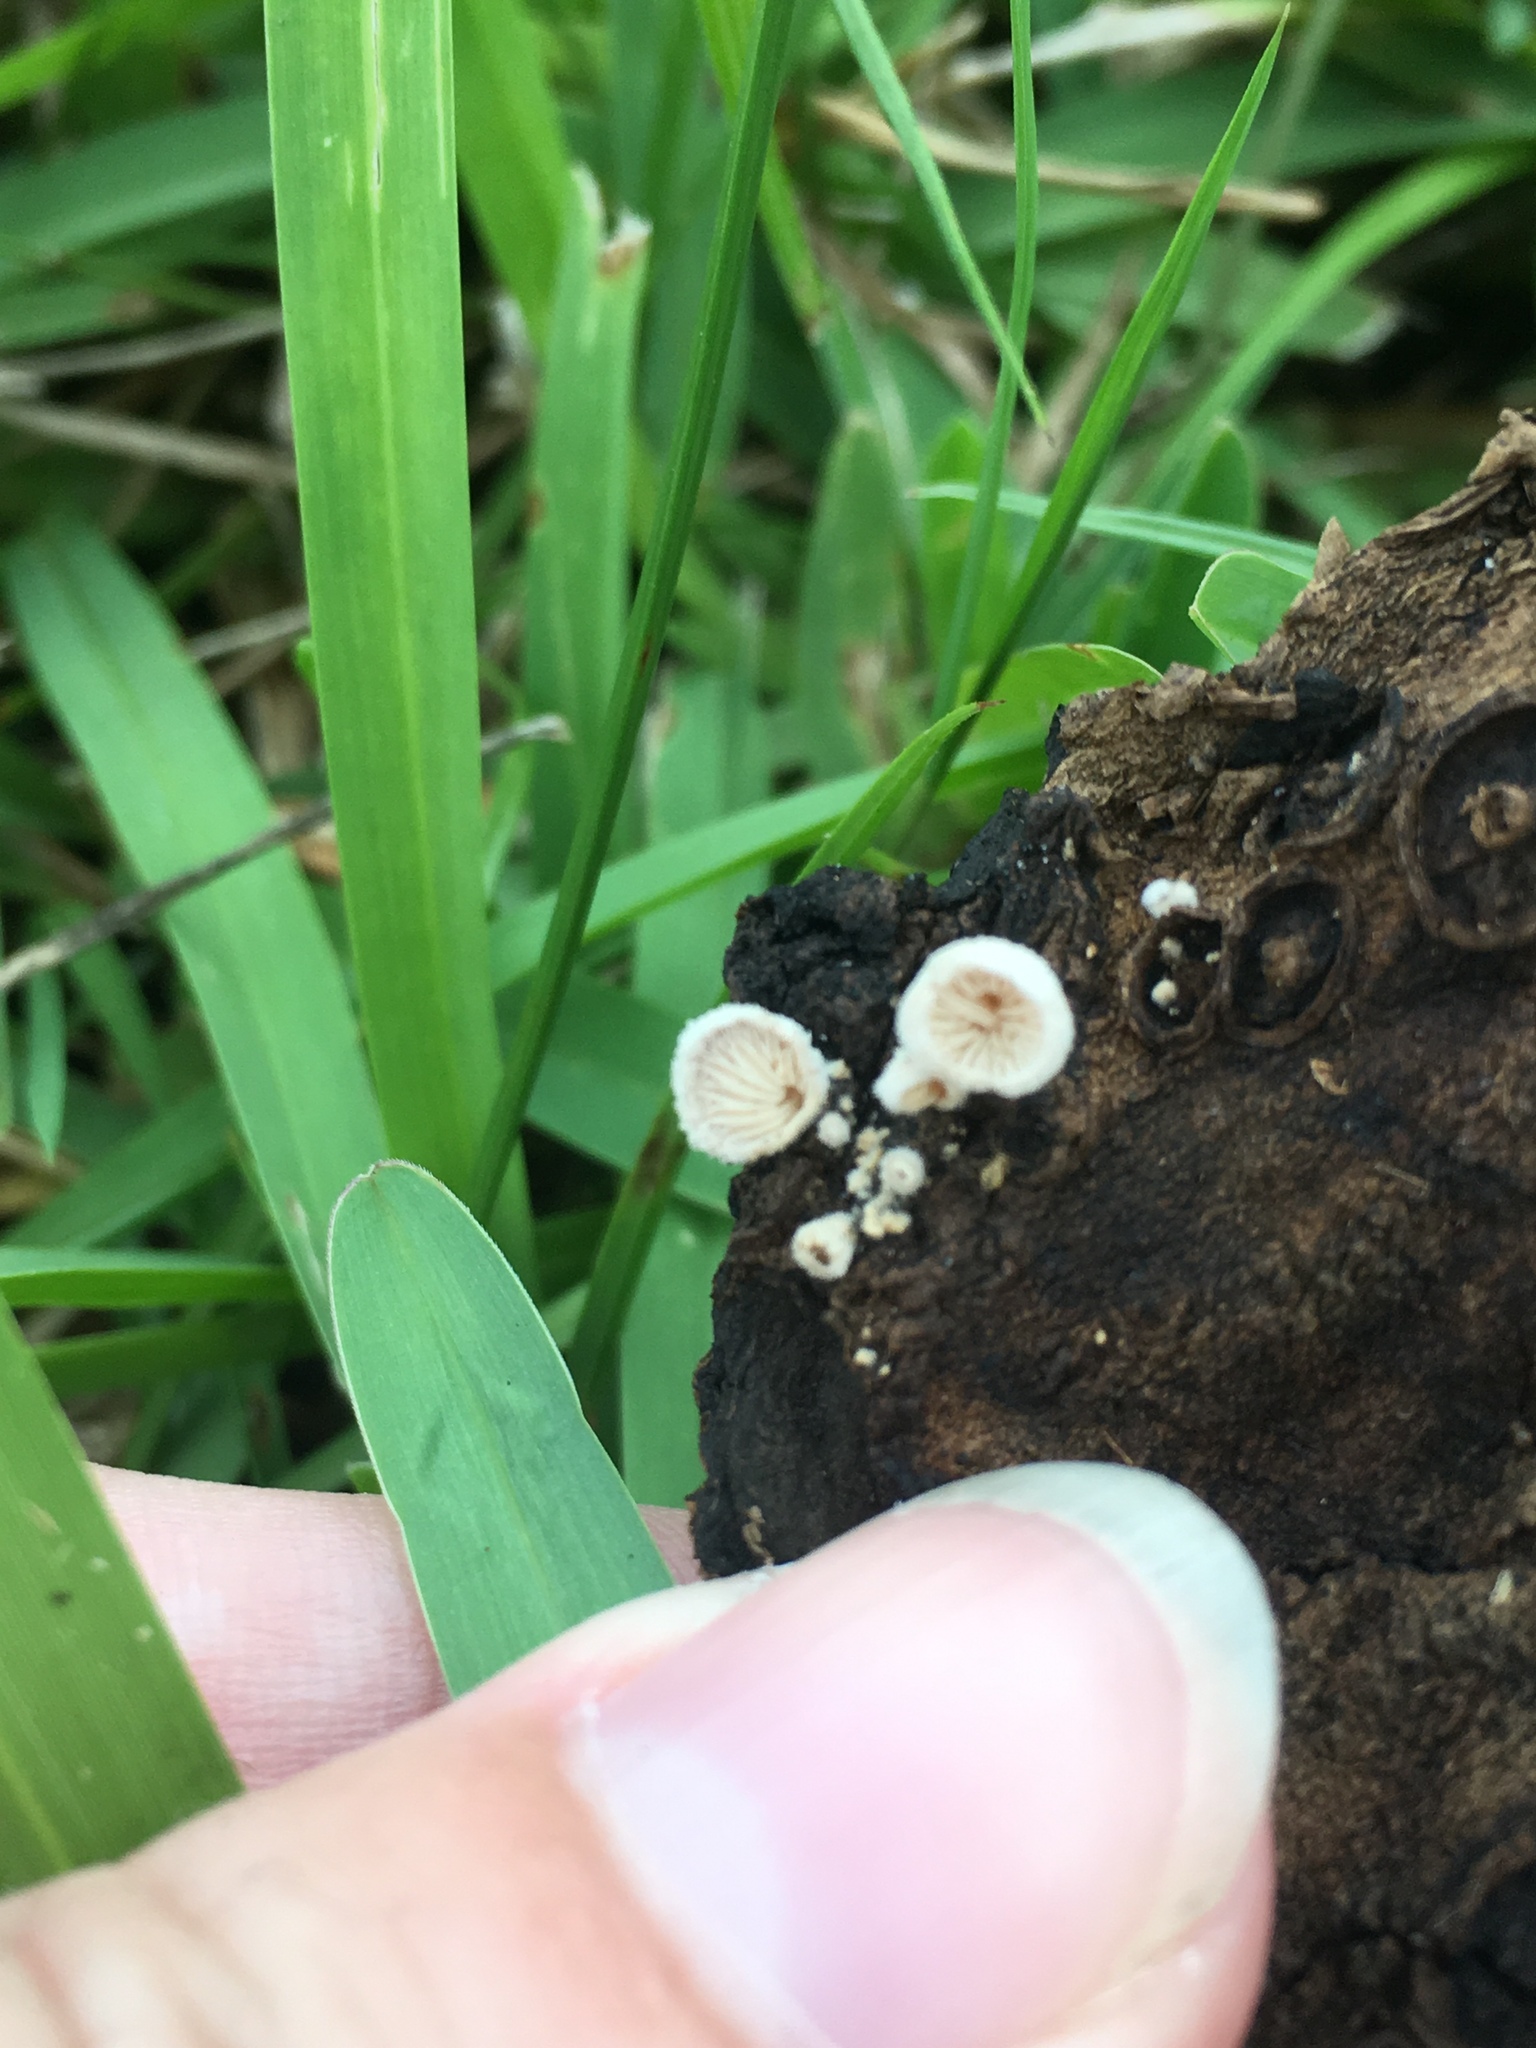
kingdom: Fungi
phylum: Basidiomycota
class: Agaricomycetes
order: Agaricales
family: Schizophyllaceae
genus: Schizophyllum
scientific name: Schizophyllum commune
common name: Common porecrust
